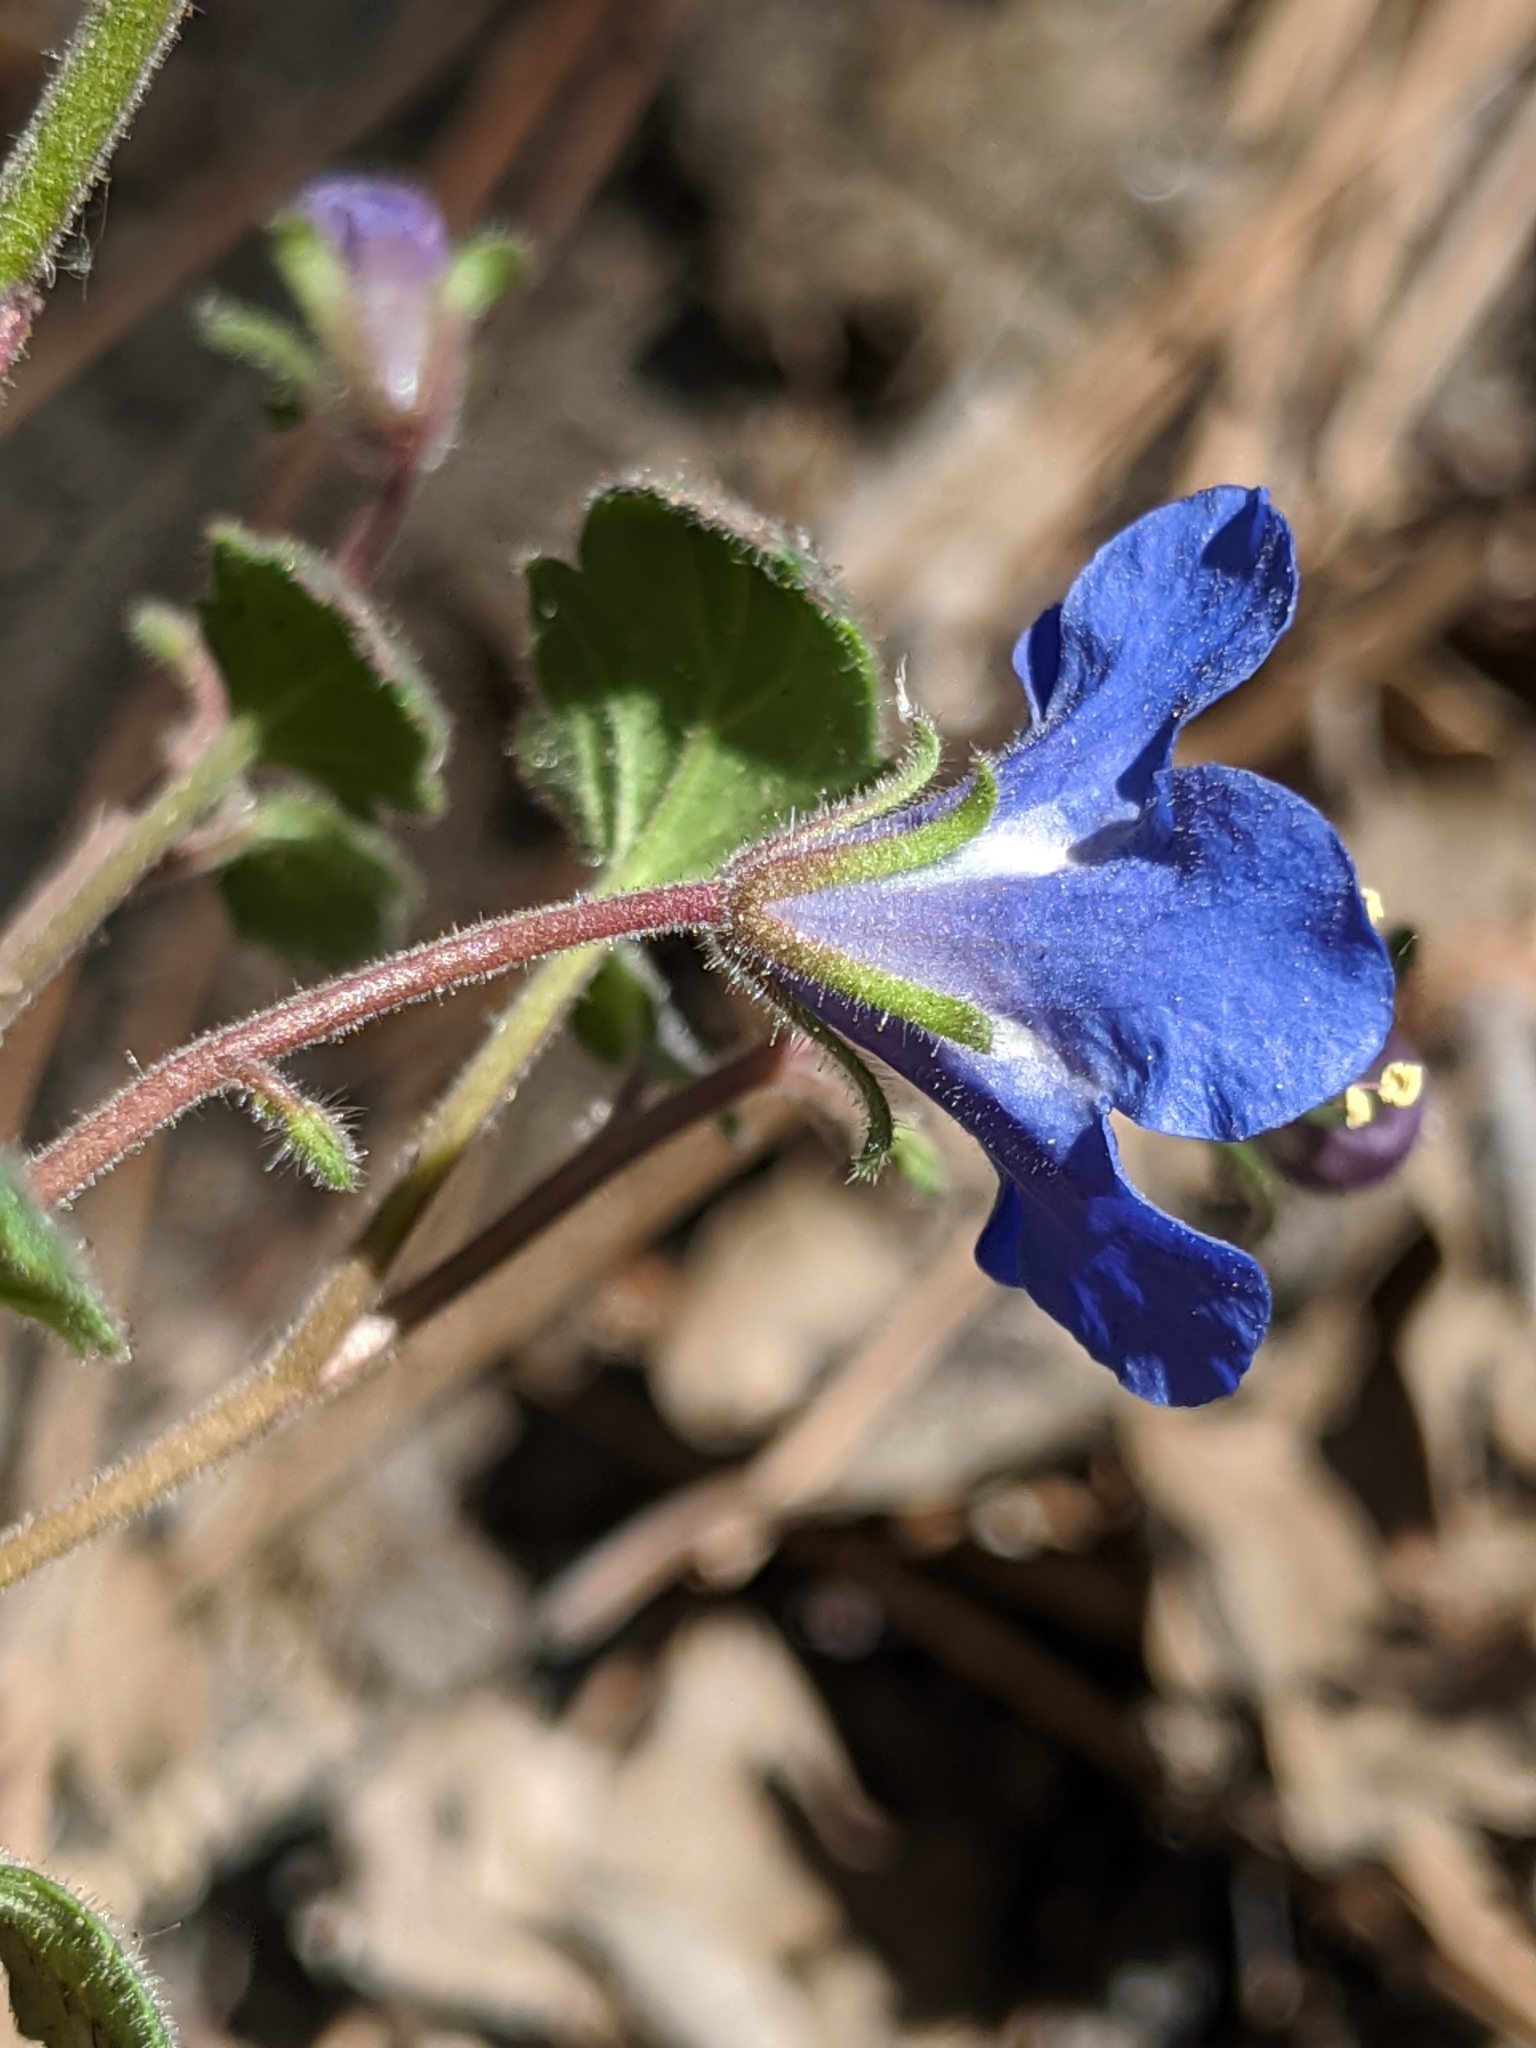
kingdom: Plantae
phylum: Tracheophyta
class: Magnoliopsida
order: Boraginales
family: Hydrophyllaceae
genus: Phacelia
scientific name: Phacelia campanularia
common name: California bluebell
